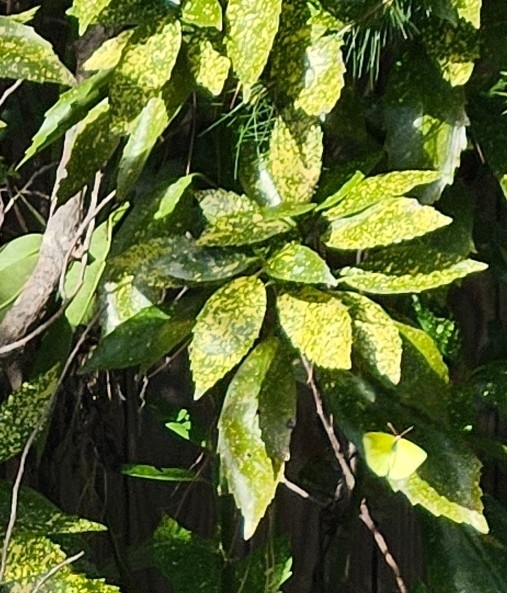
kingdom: Plantae
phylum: Tracheophyta
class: Magnoliopsida
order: Garryales
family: Garryaceae
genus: Aucuba
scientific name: Aucuba japonica
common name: Spotted-laurel
